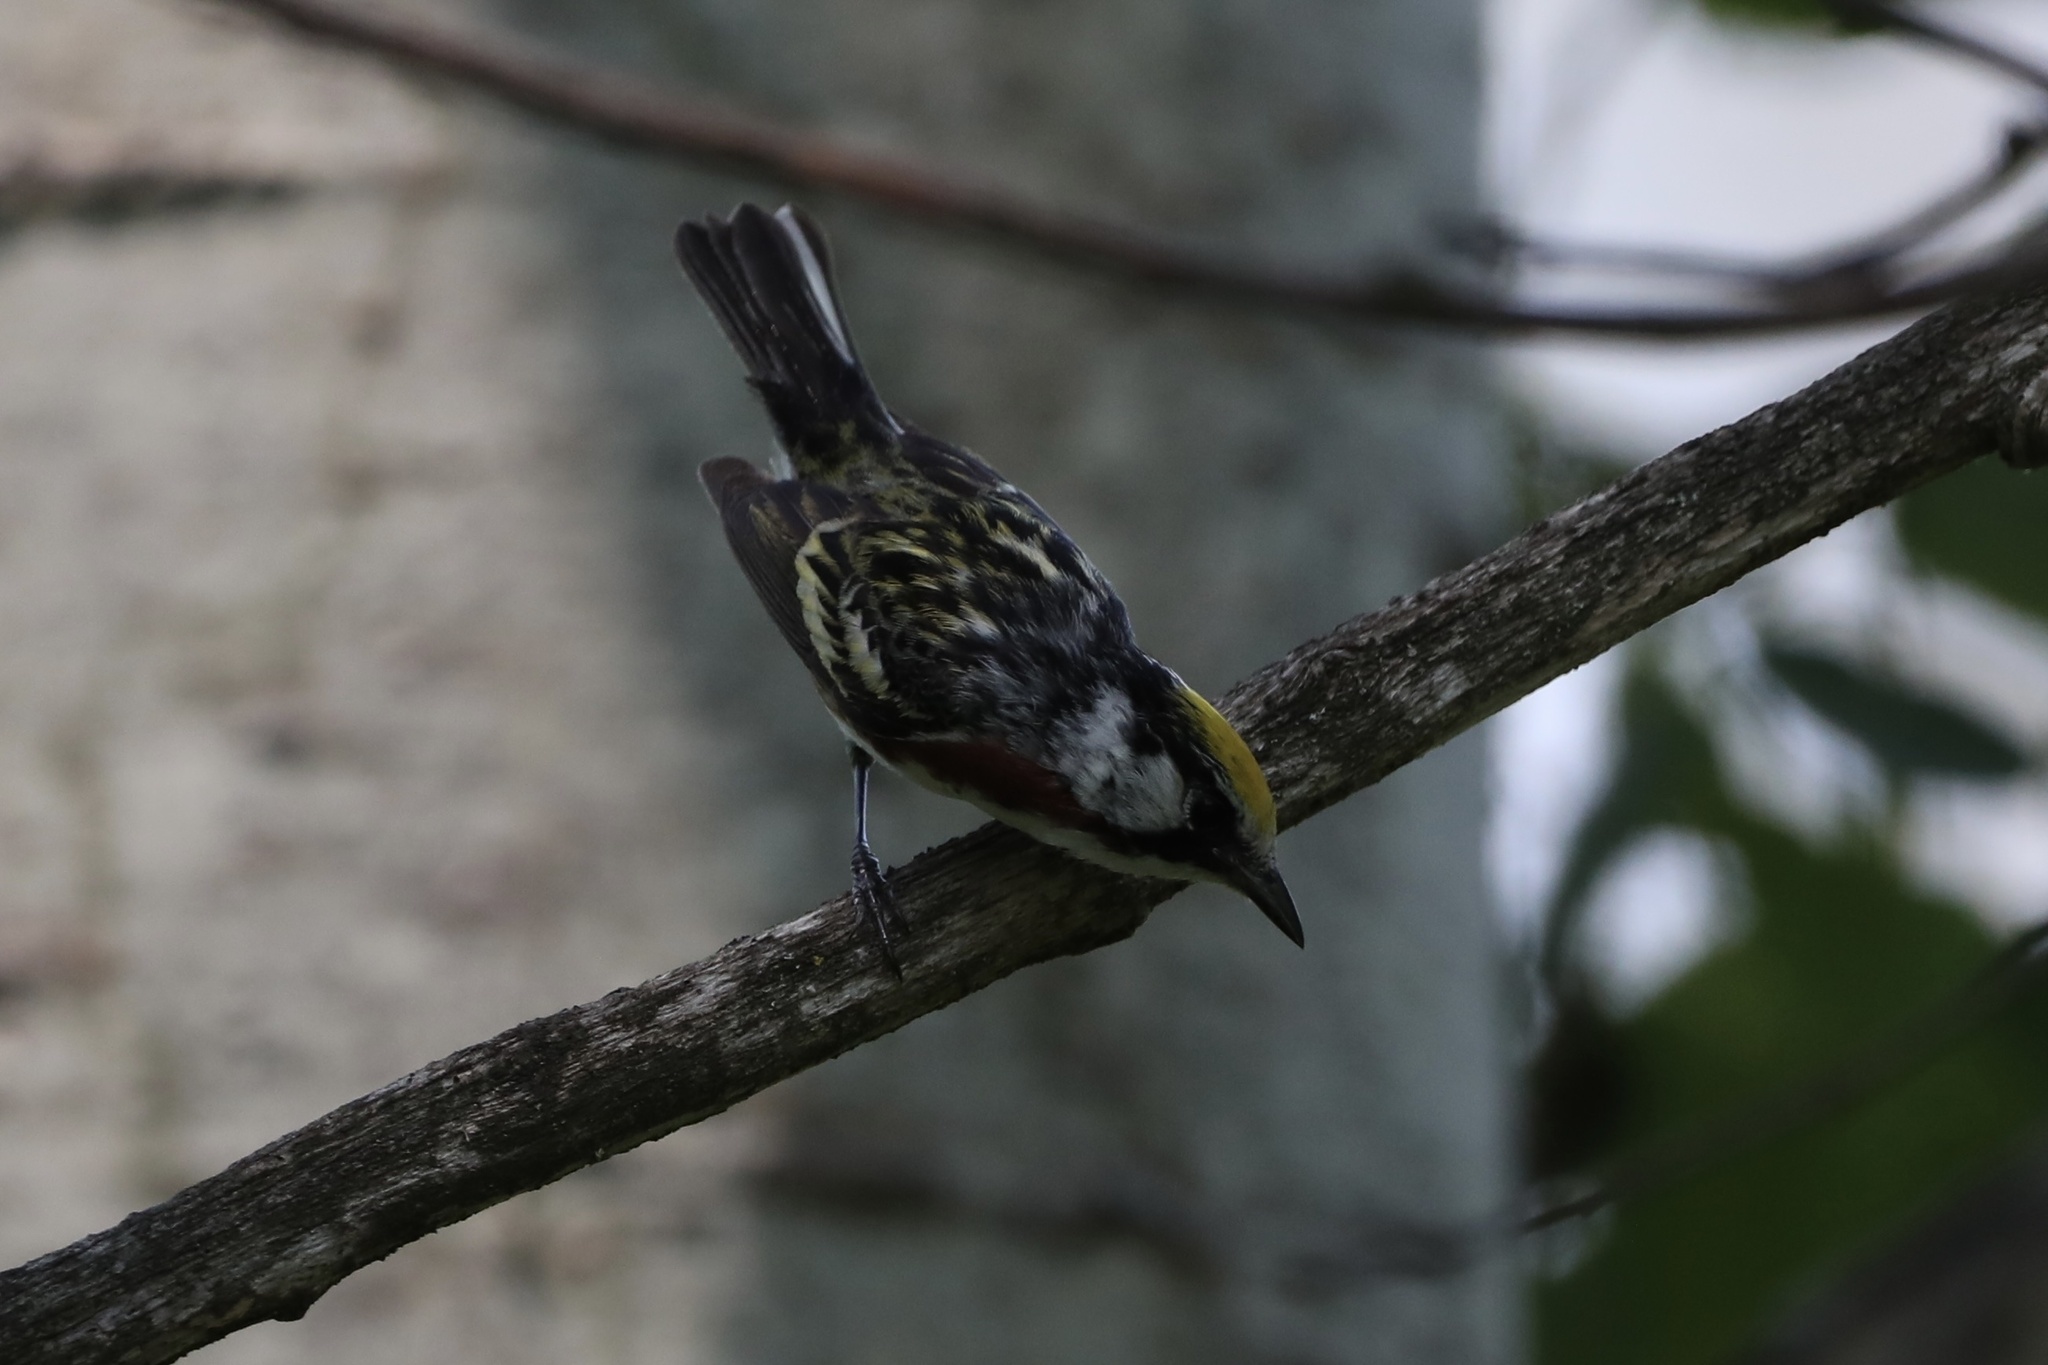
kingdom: Animalia
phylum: Chordata
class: Aves
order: Passeriformes
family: Parulidae
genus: Setophaga
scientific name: Setophaga pensylvanica
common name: Chestnut-sided warbler
